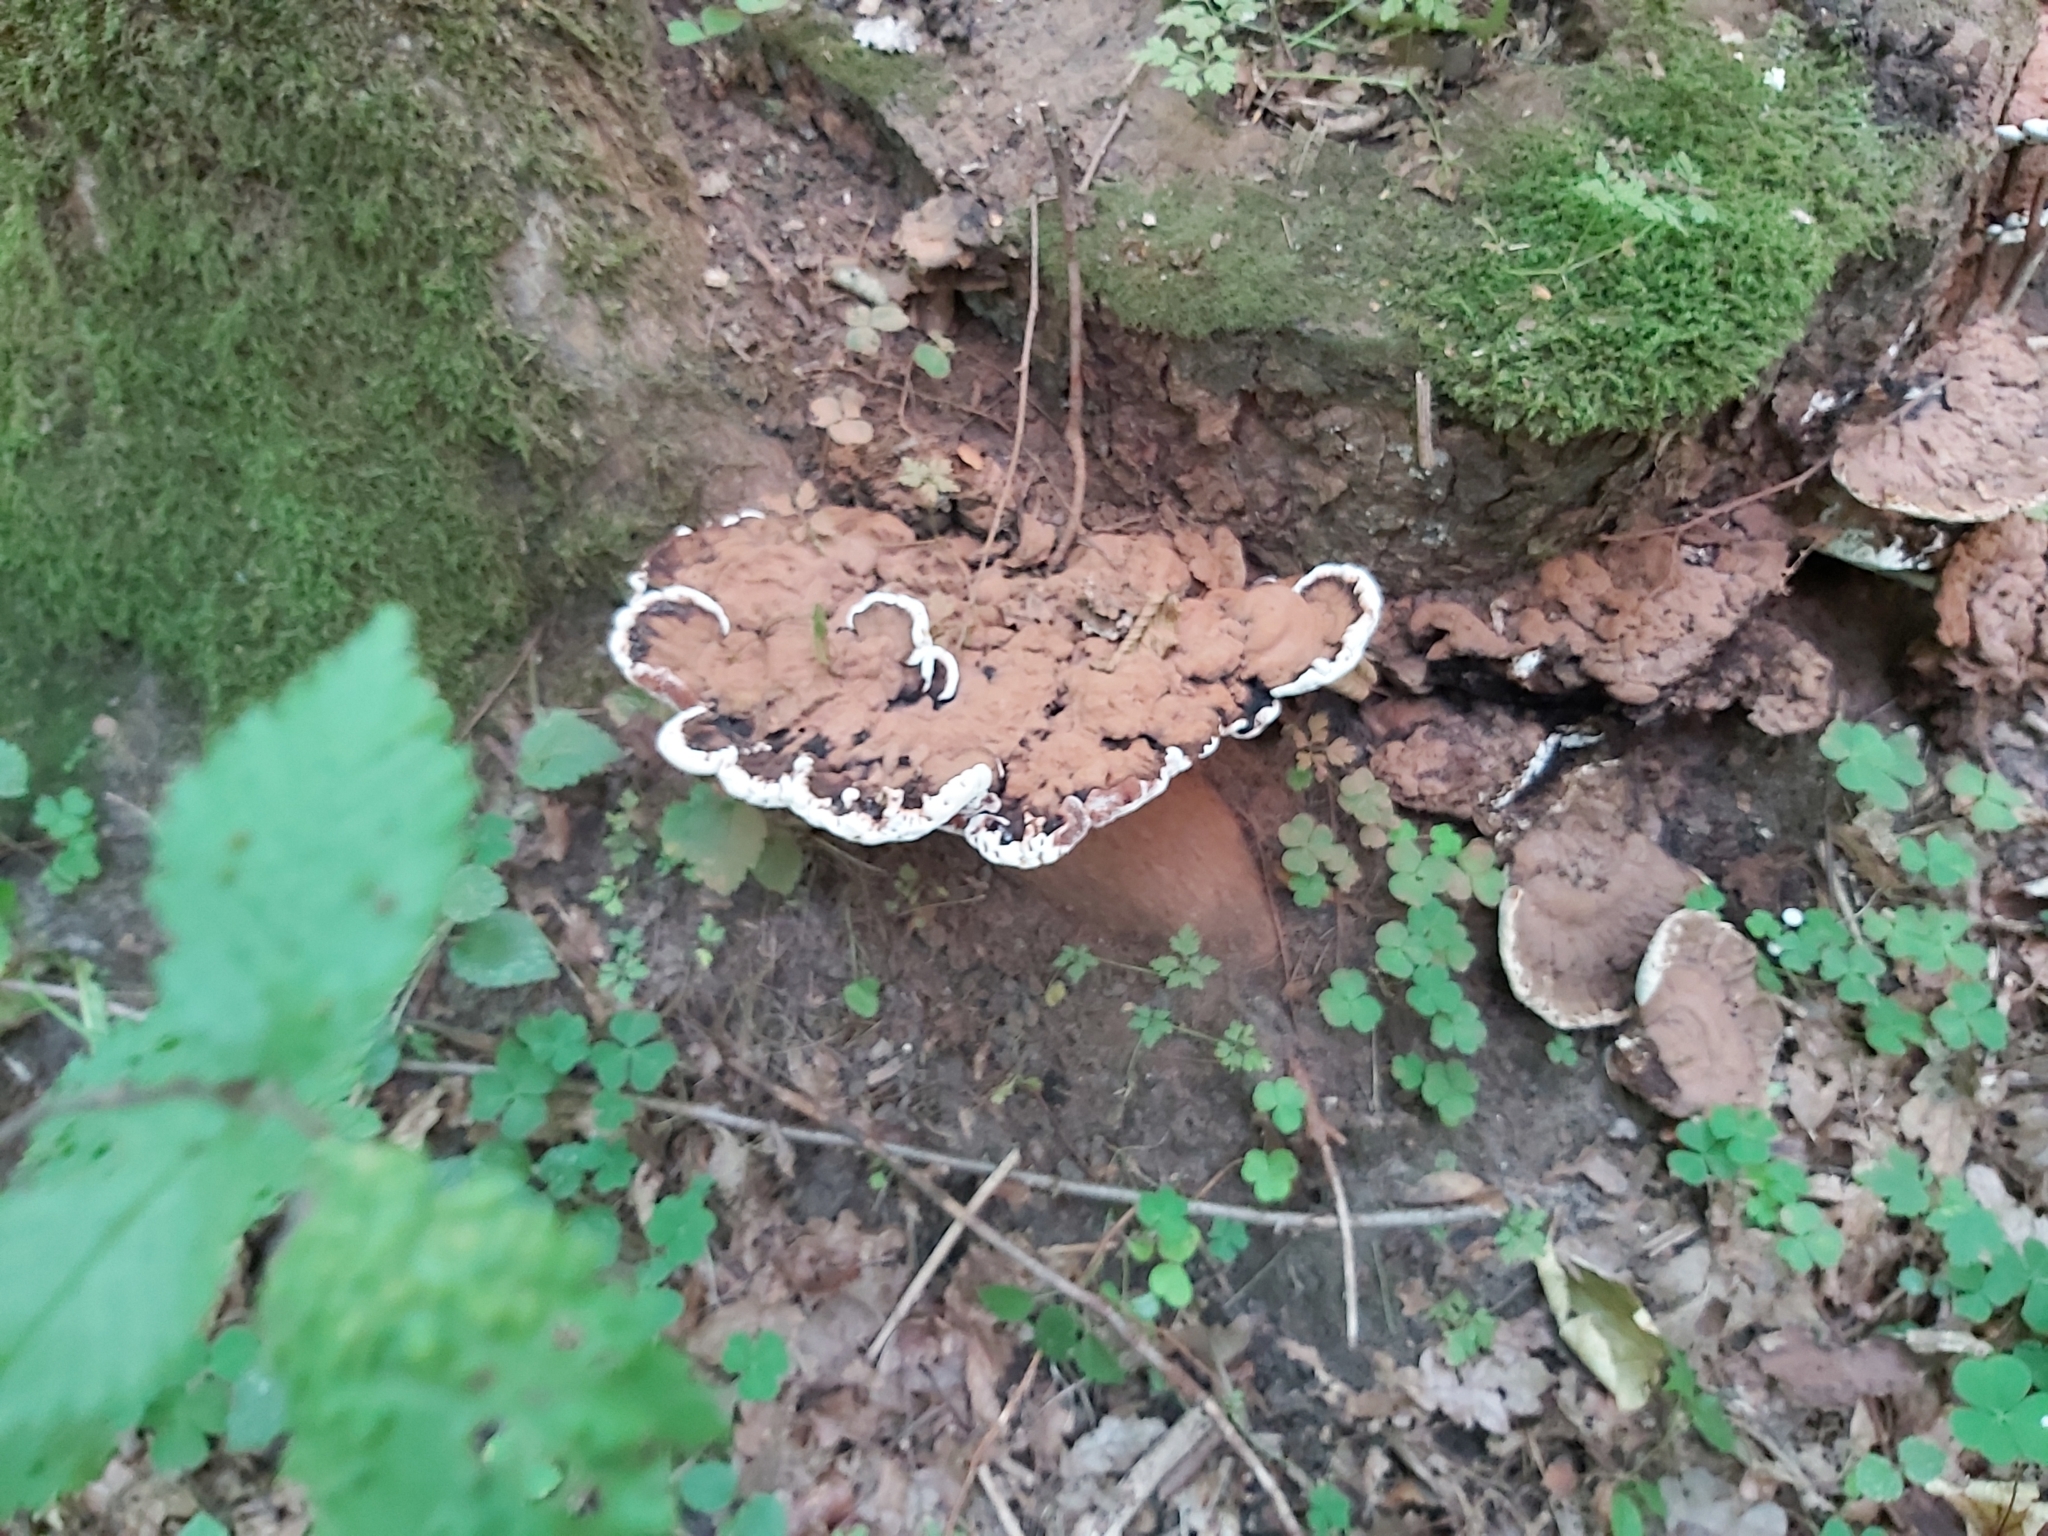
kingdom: Fungi
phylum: Basidiomycota
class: Agaricomycetes
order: Polyporales
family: Polyporaceae
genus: Ganoderma
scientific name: Ganoderma applanatum
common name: Artist's bracket
